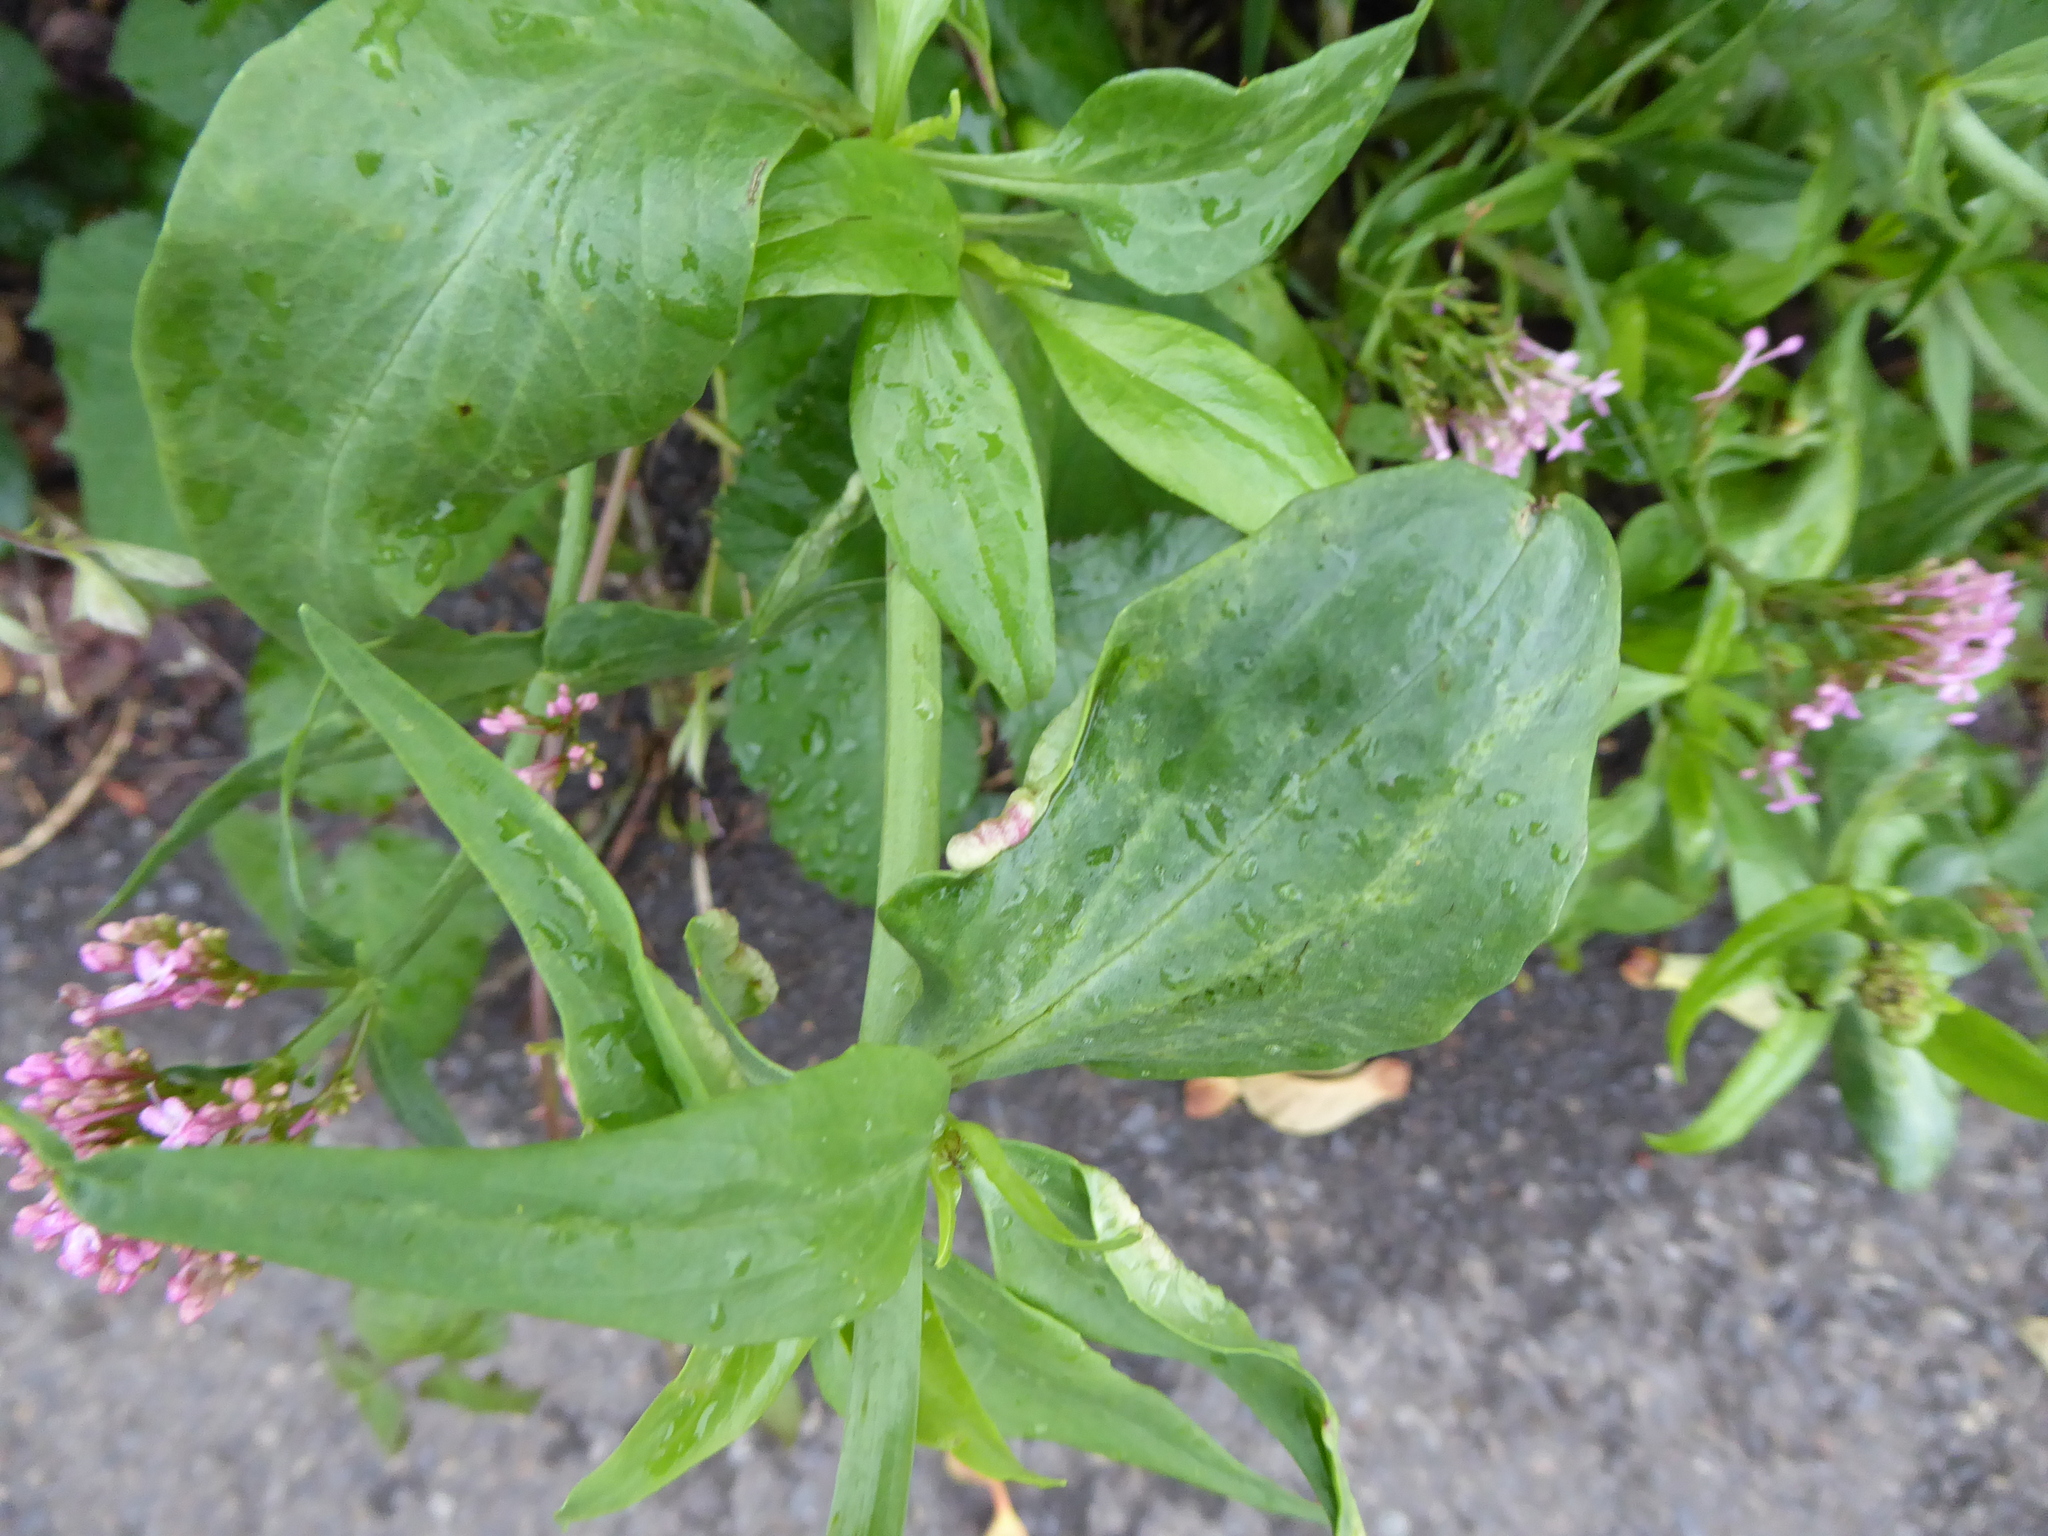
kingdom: Animalia
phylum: Arthropoda
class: Insecta
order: Hemiptera
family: Triozidae
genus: Trioza
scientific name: Trioza centranthi
